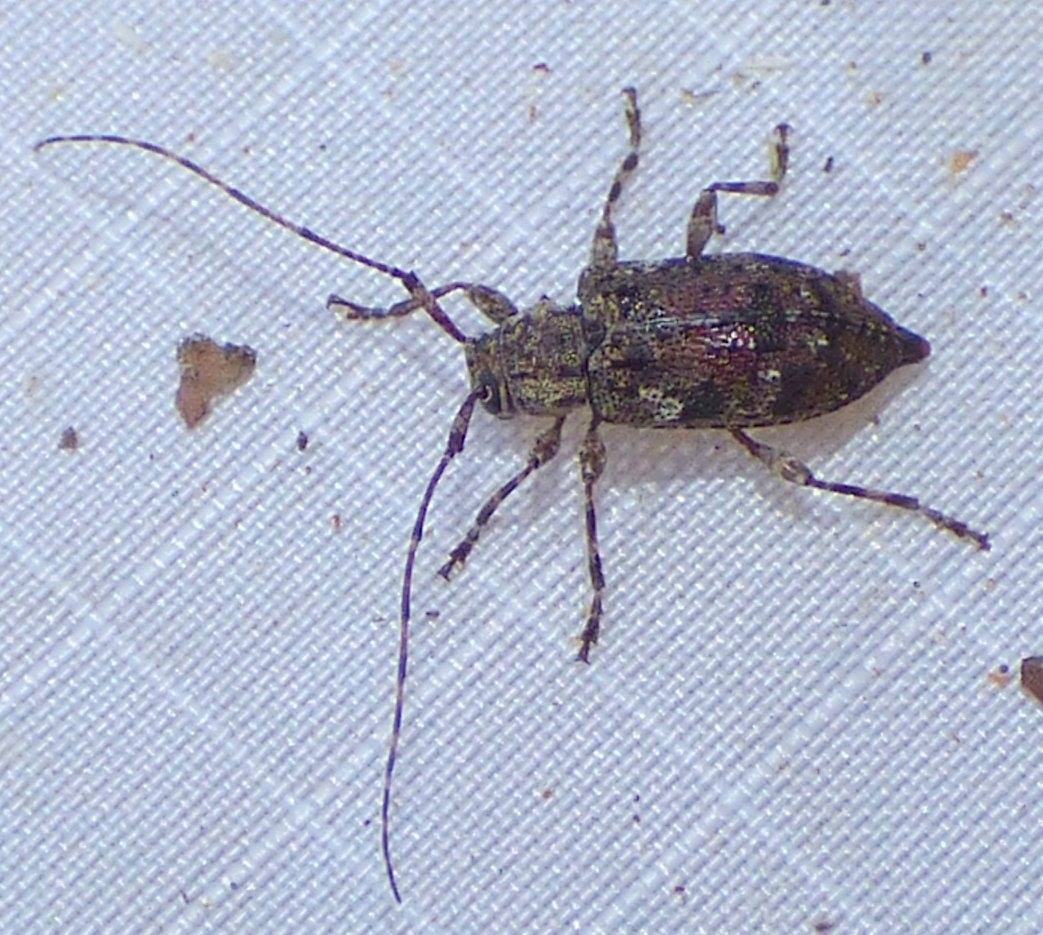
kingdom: Animalia
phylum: Arthropoda
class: Insecta
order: Coleoptera
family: Cerambycidae
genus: Astylopsis
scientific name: Astylopsis sexguttata
